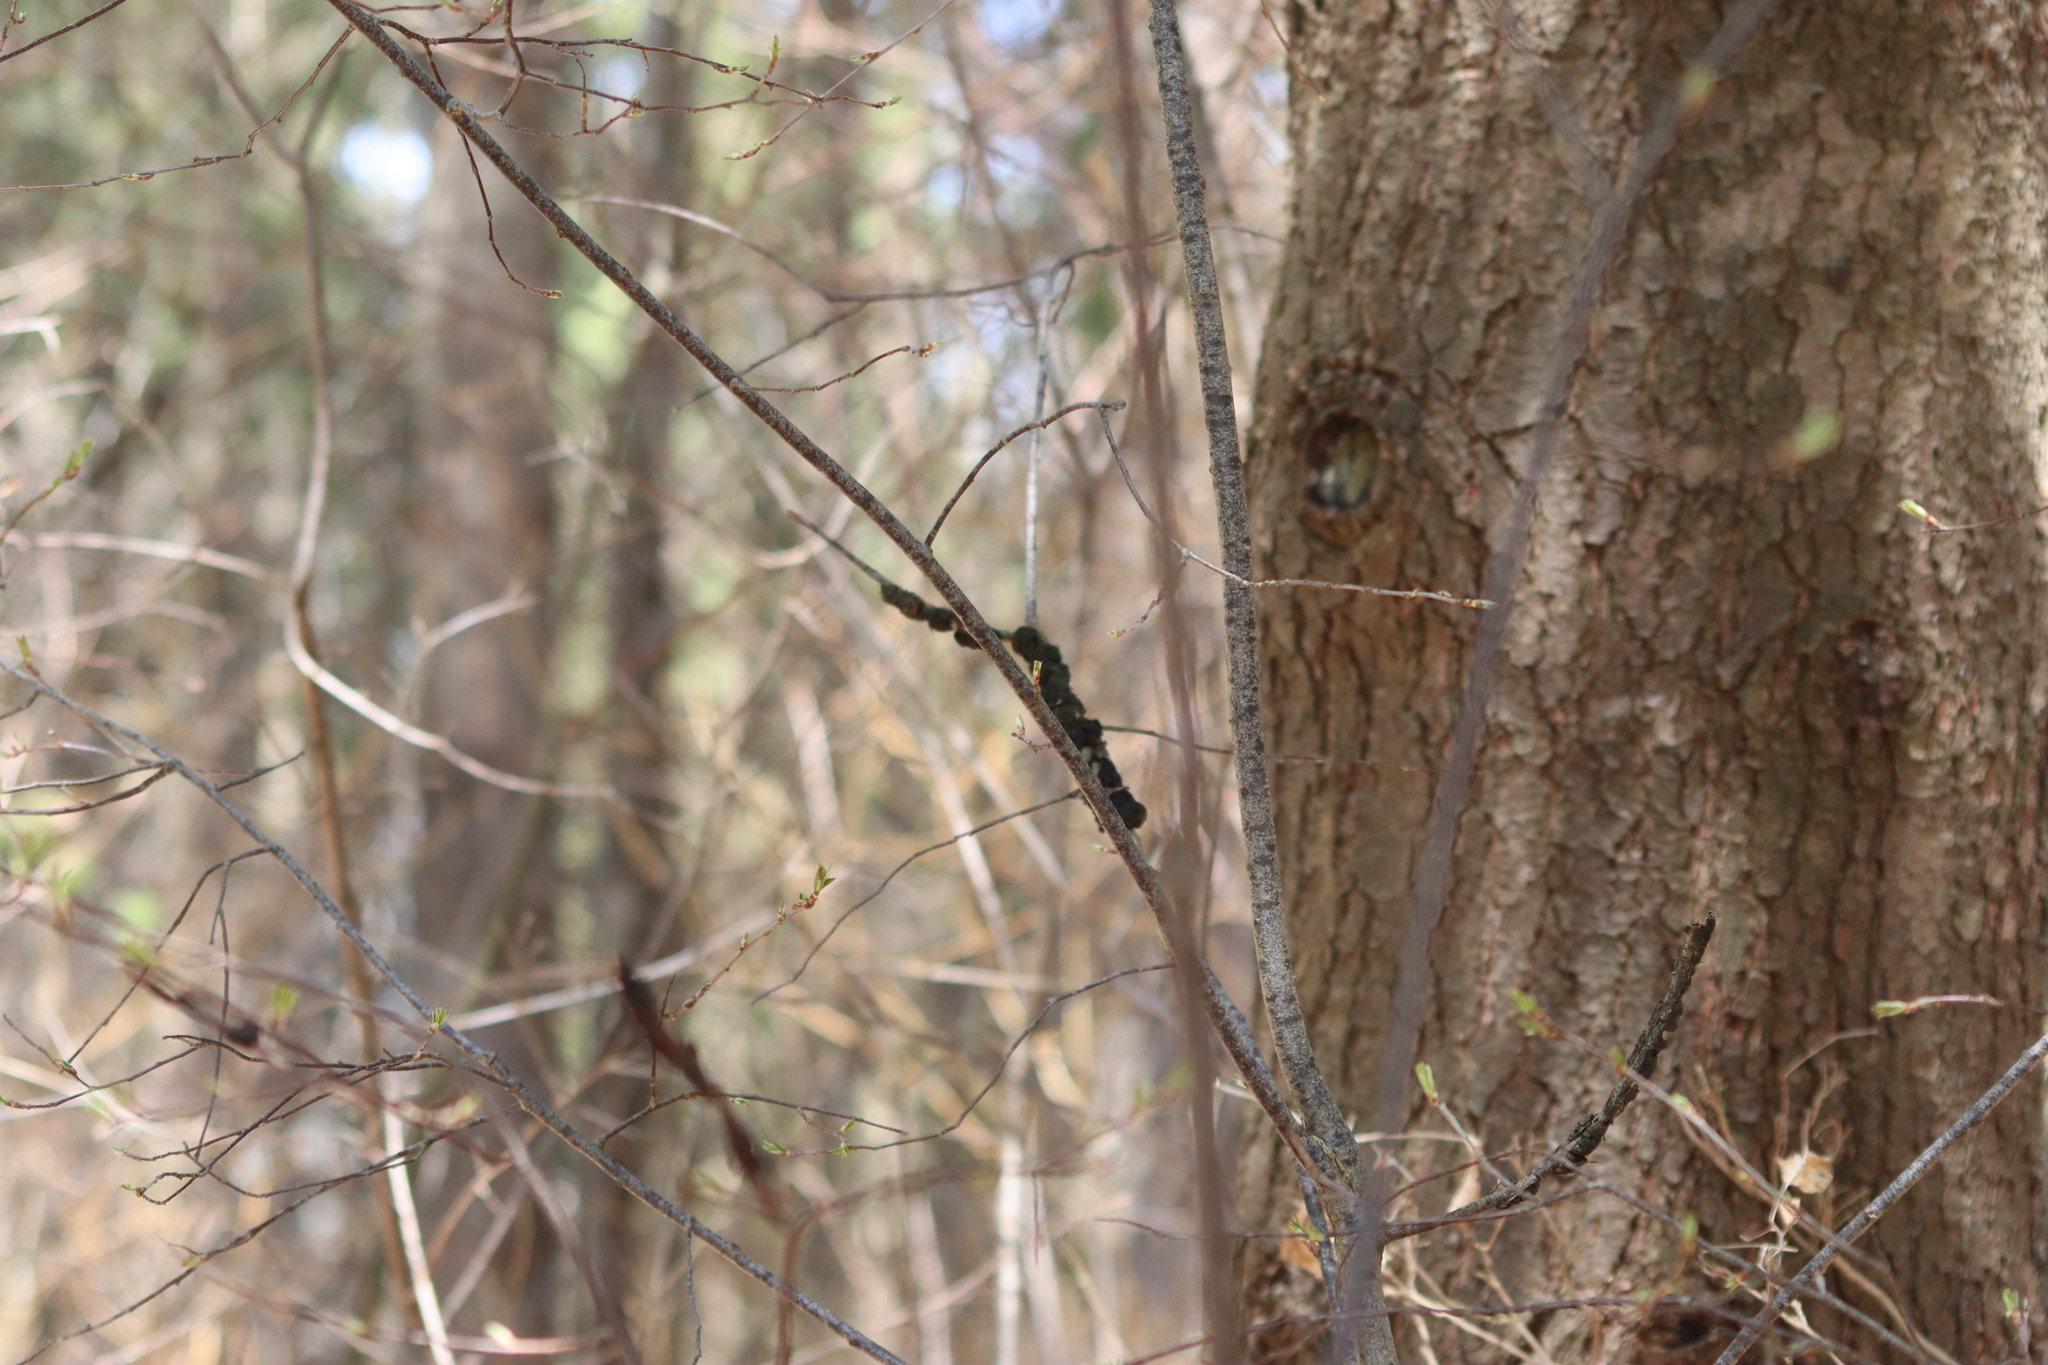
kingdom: Fungi
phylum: Ascomycota
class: Dothideomycetes
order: Venturiales
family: Venturiaceae
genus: Apiosporina
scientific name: Apiosporina morbosa
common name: Black knot
